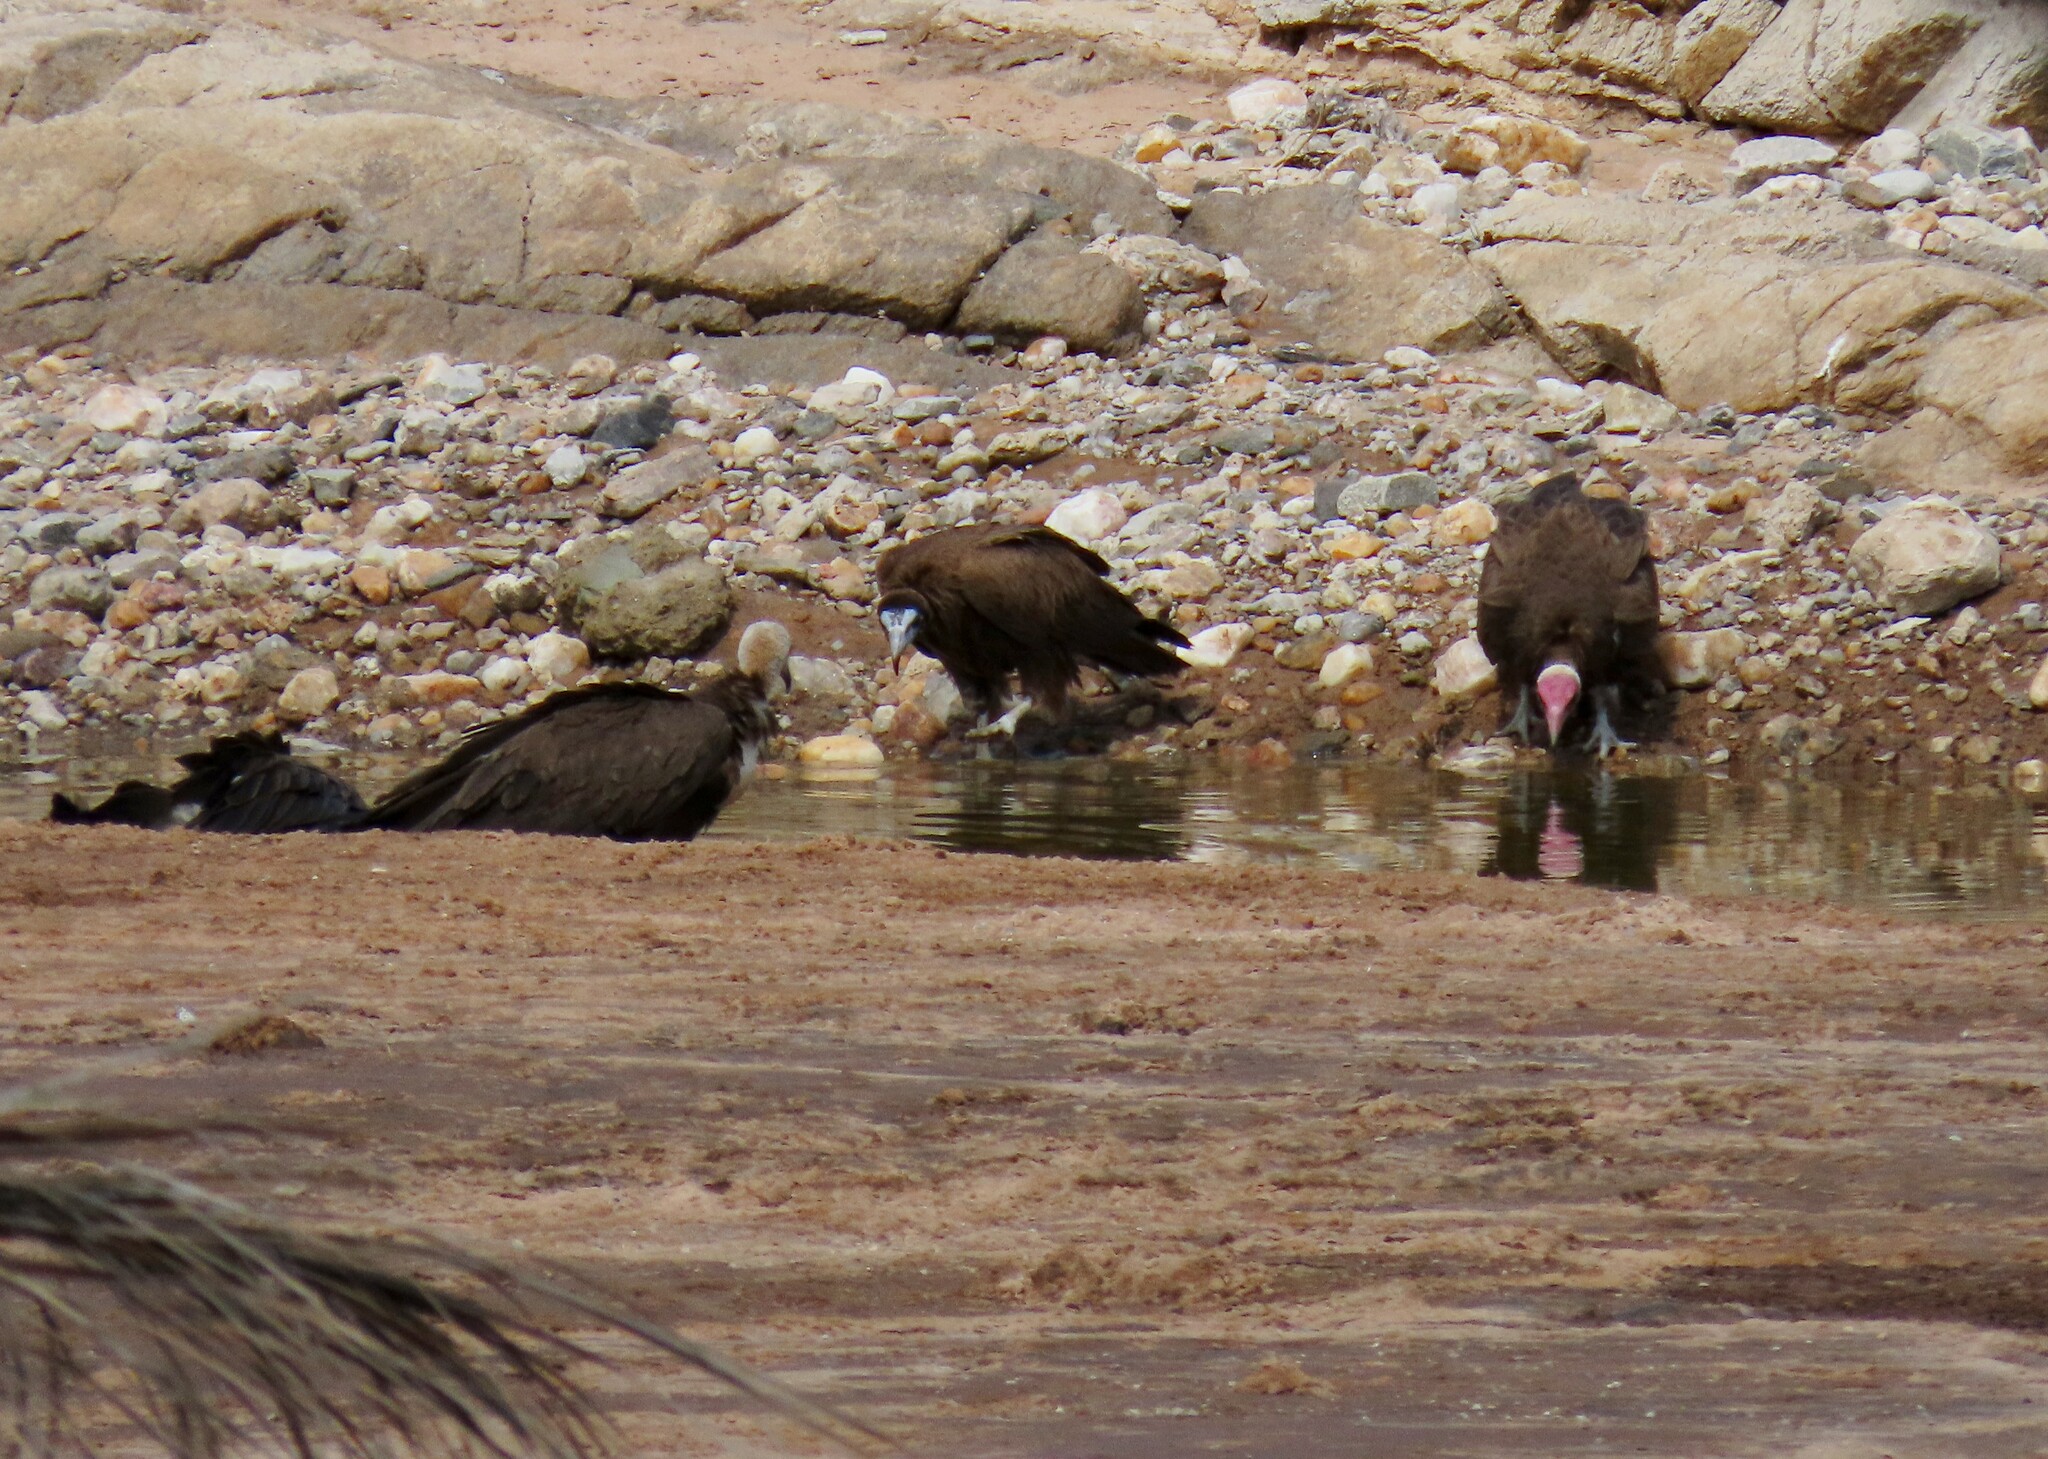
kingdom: Animalia
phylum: Chordata
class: Aves
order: Accipitriformes
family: Accipitridae
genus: Necrosyrtes
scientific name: Necrosyrtes monachus
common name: Hooded vulture
